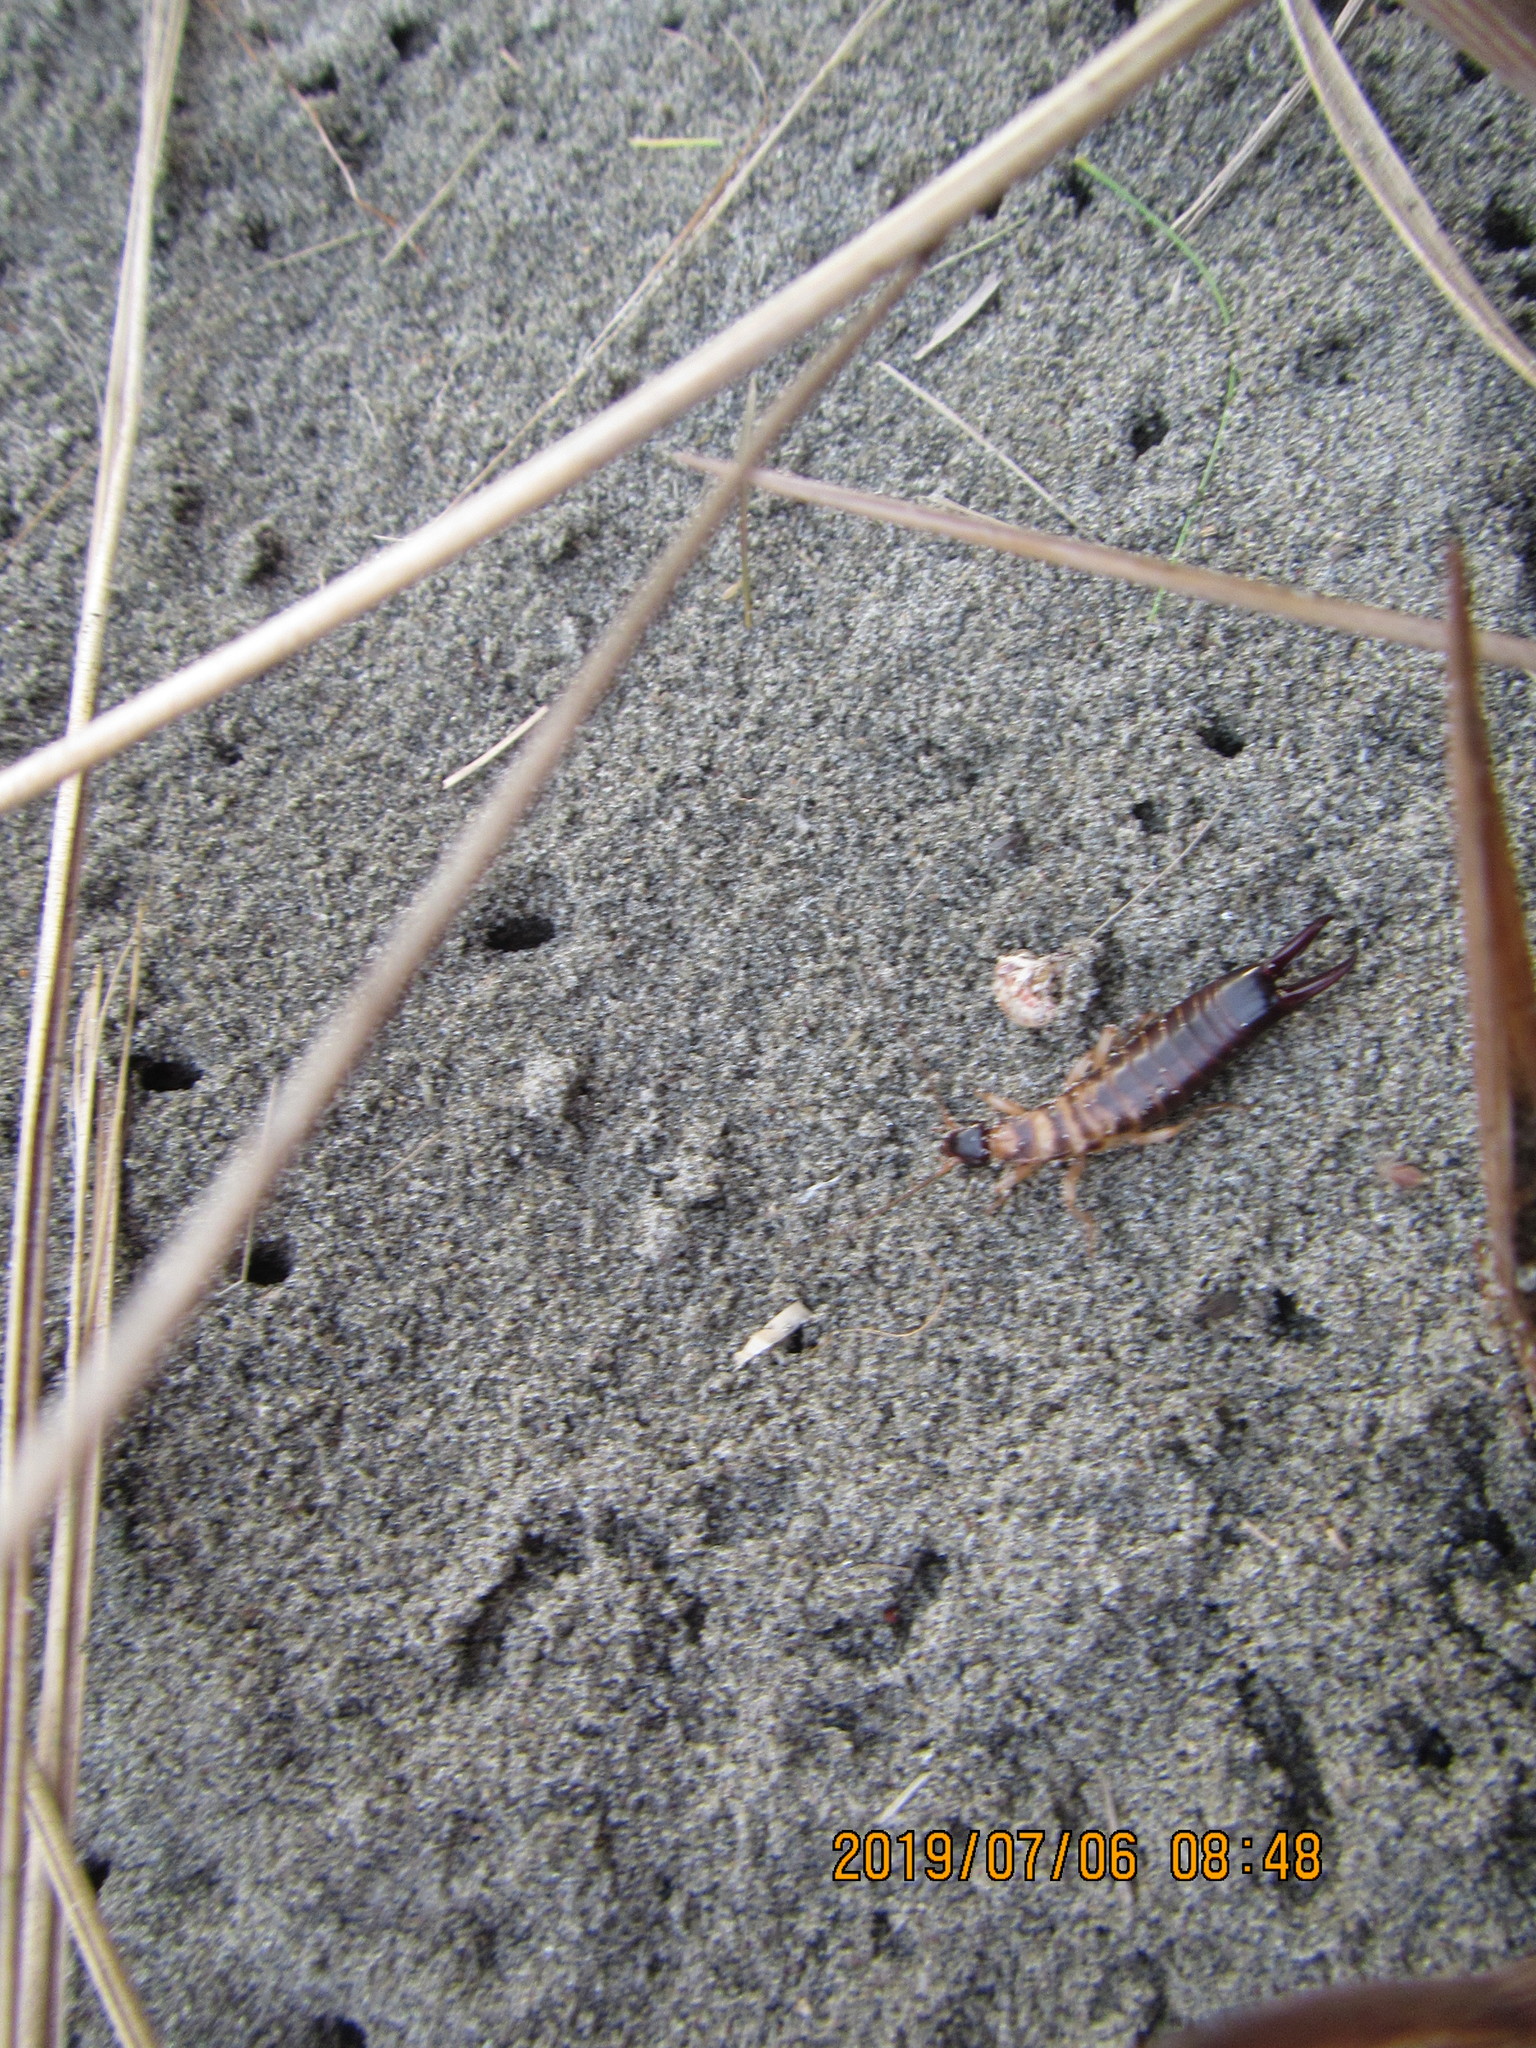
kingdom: Animalia
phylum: Arthropoda
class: Insecta
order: Dermaptera
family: Anisolabididae
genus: Anisolabis
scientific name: Anisolabis littorea
